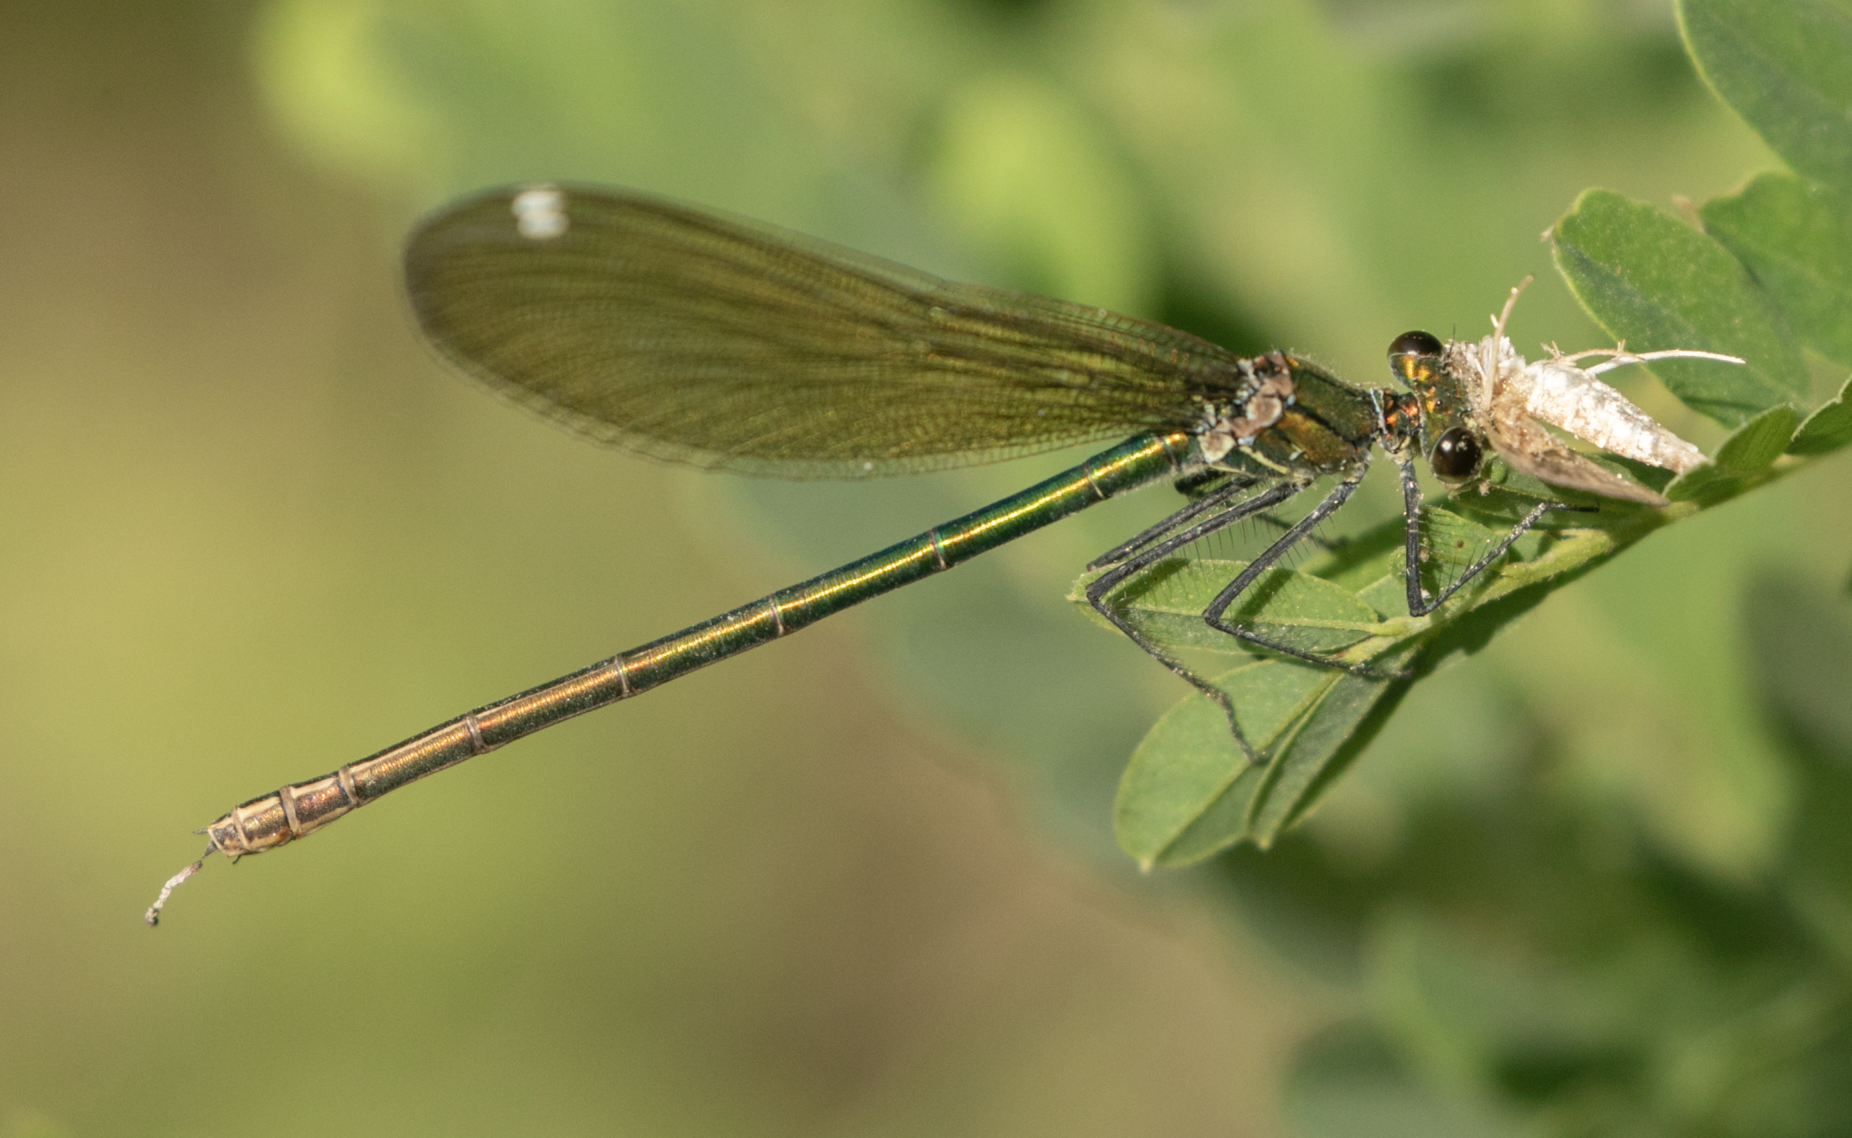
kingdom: Animalia
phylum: Arthropoda
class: Insecta
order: Odonata
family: Calopterygidae
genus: Calopteryx
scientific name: Calopteryx splendens
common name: Banded demoiselle
